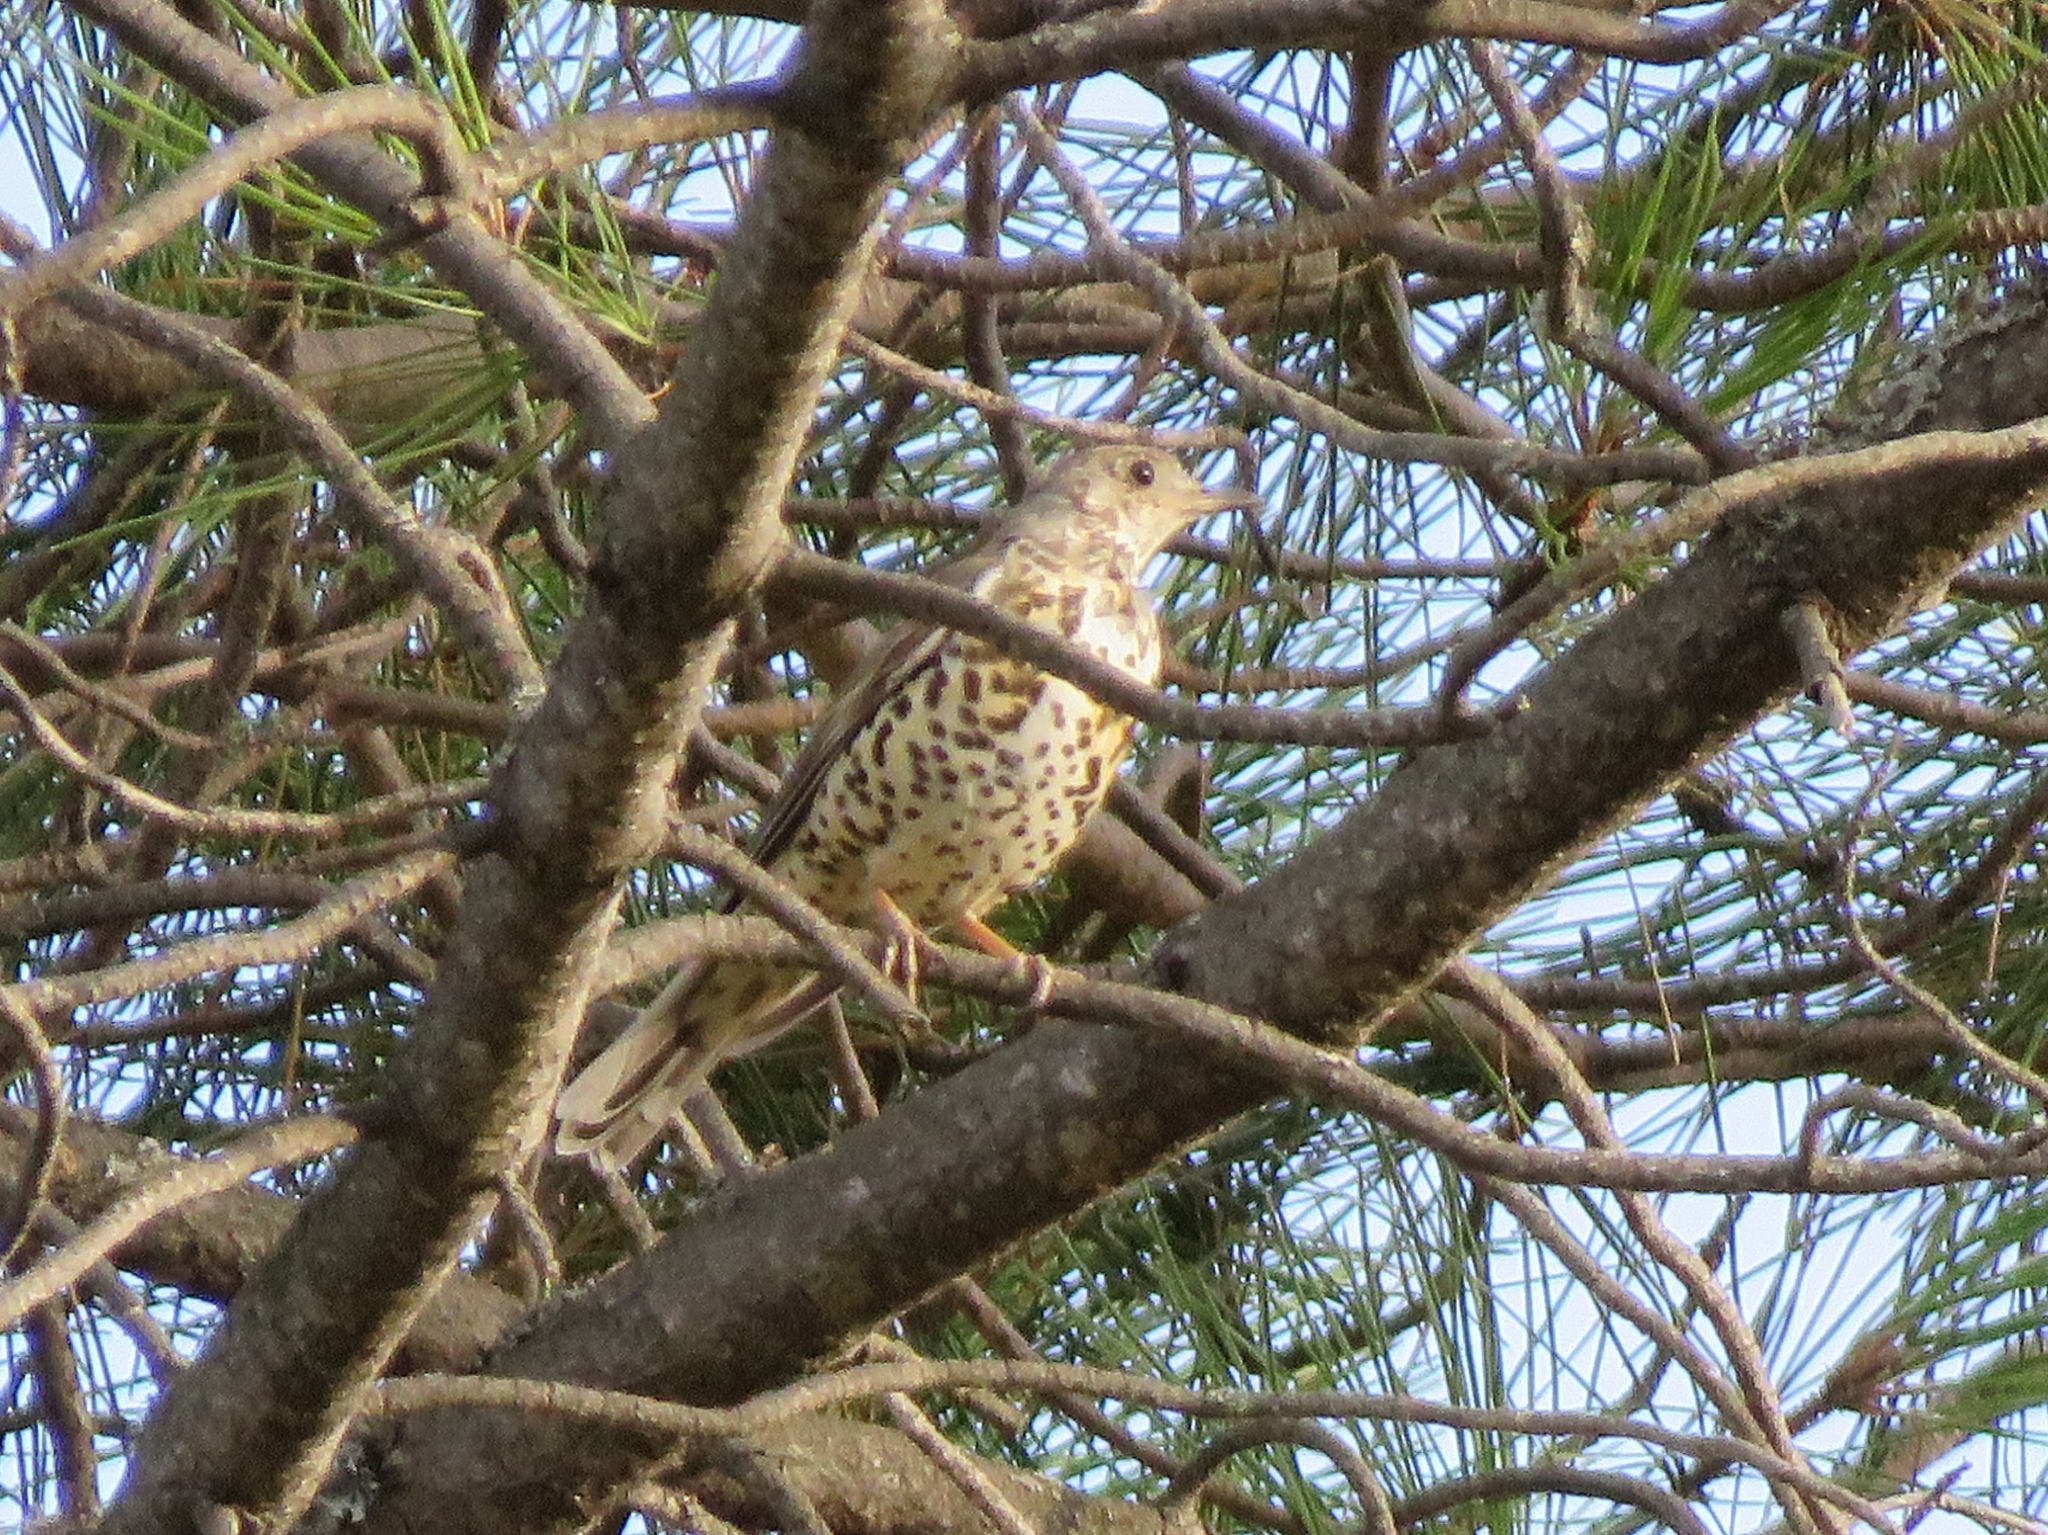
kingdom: Animalia
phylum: Chordata
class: Aves
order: Passeriformes
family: Turdidae
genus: Turdus
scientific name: Turdus viscivorus
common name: Mistle thrush
